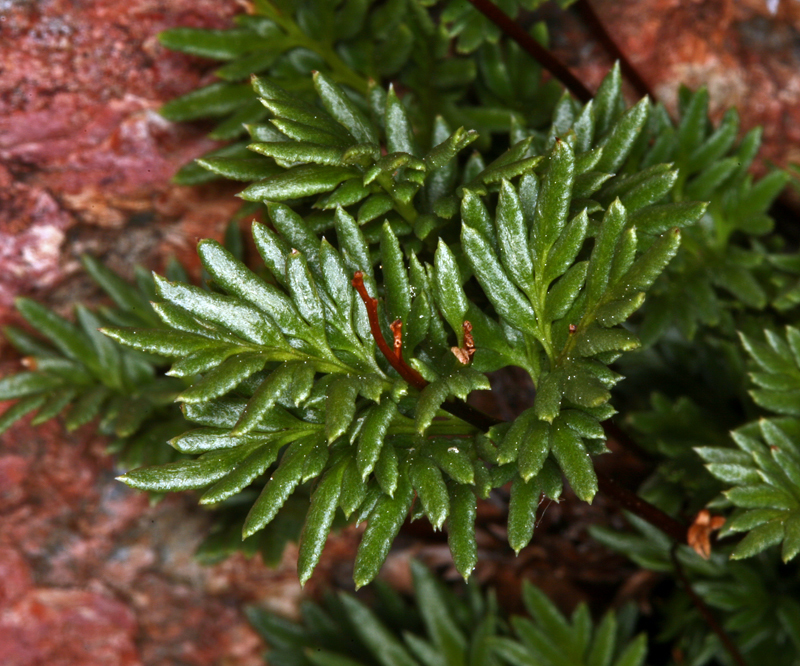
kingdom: Plantae
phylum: Tracheophyta
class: Polypodiopsida
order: Polypodiales
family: Pteridaceae
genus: Aspidotis
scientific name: Aspidotis densa
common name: Indian's dream
